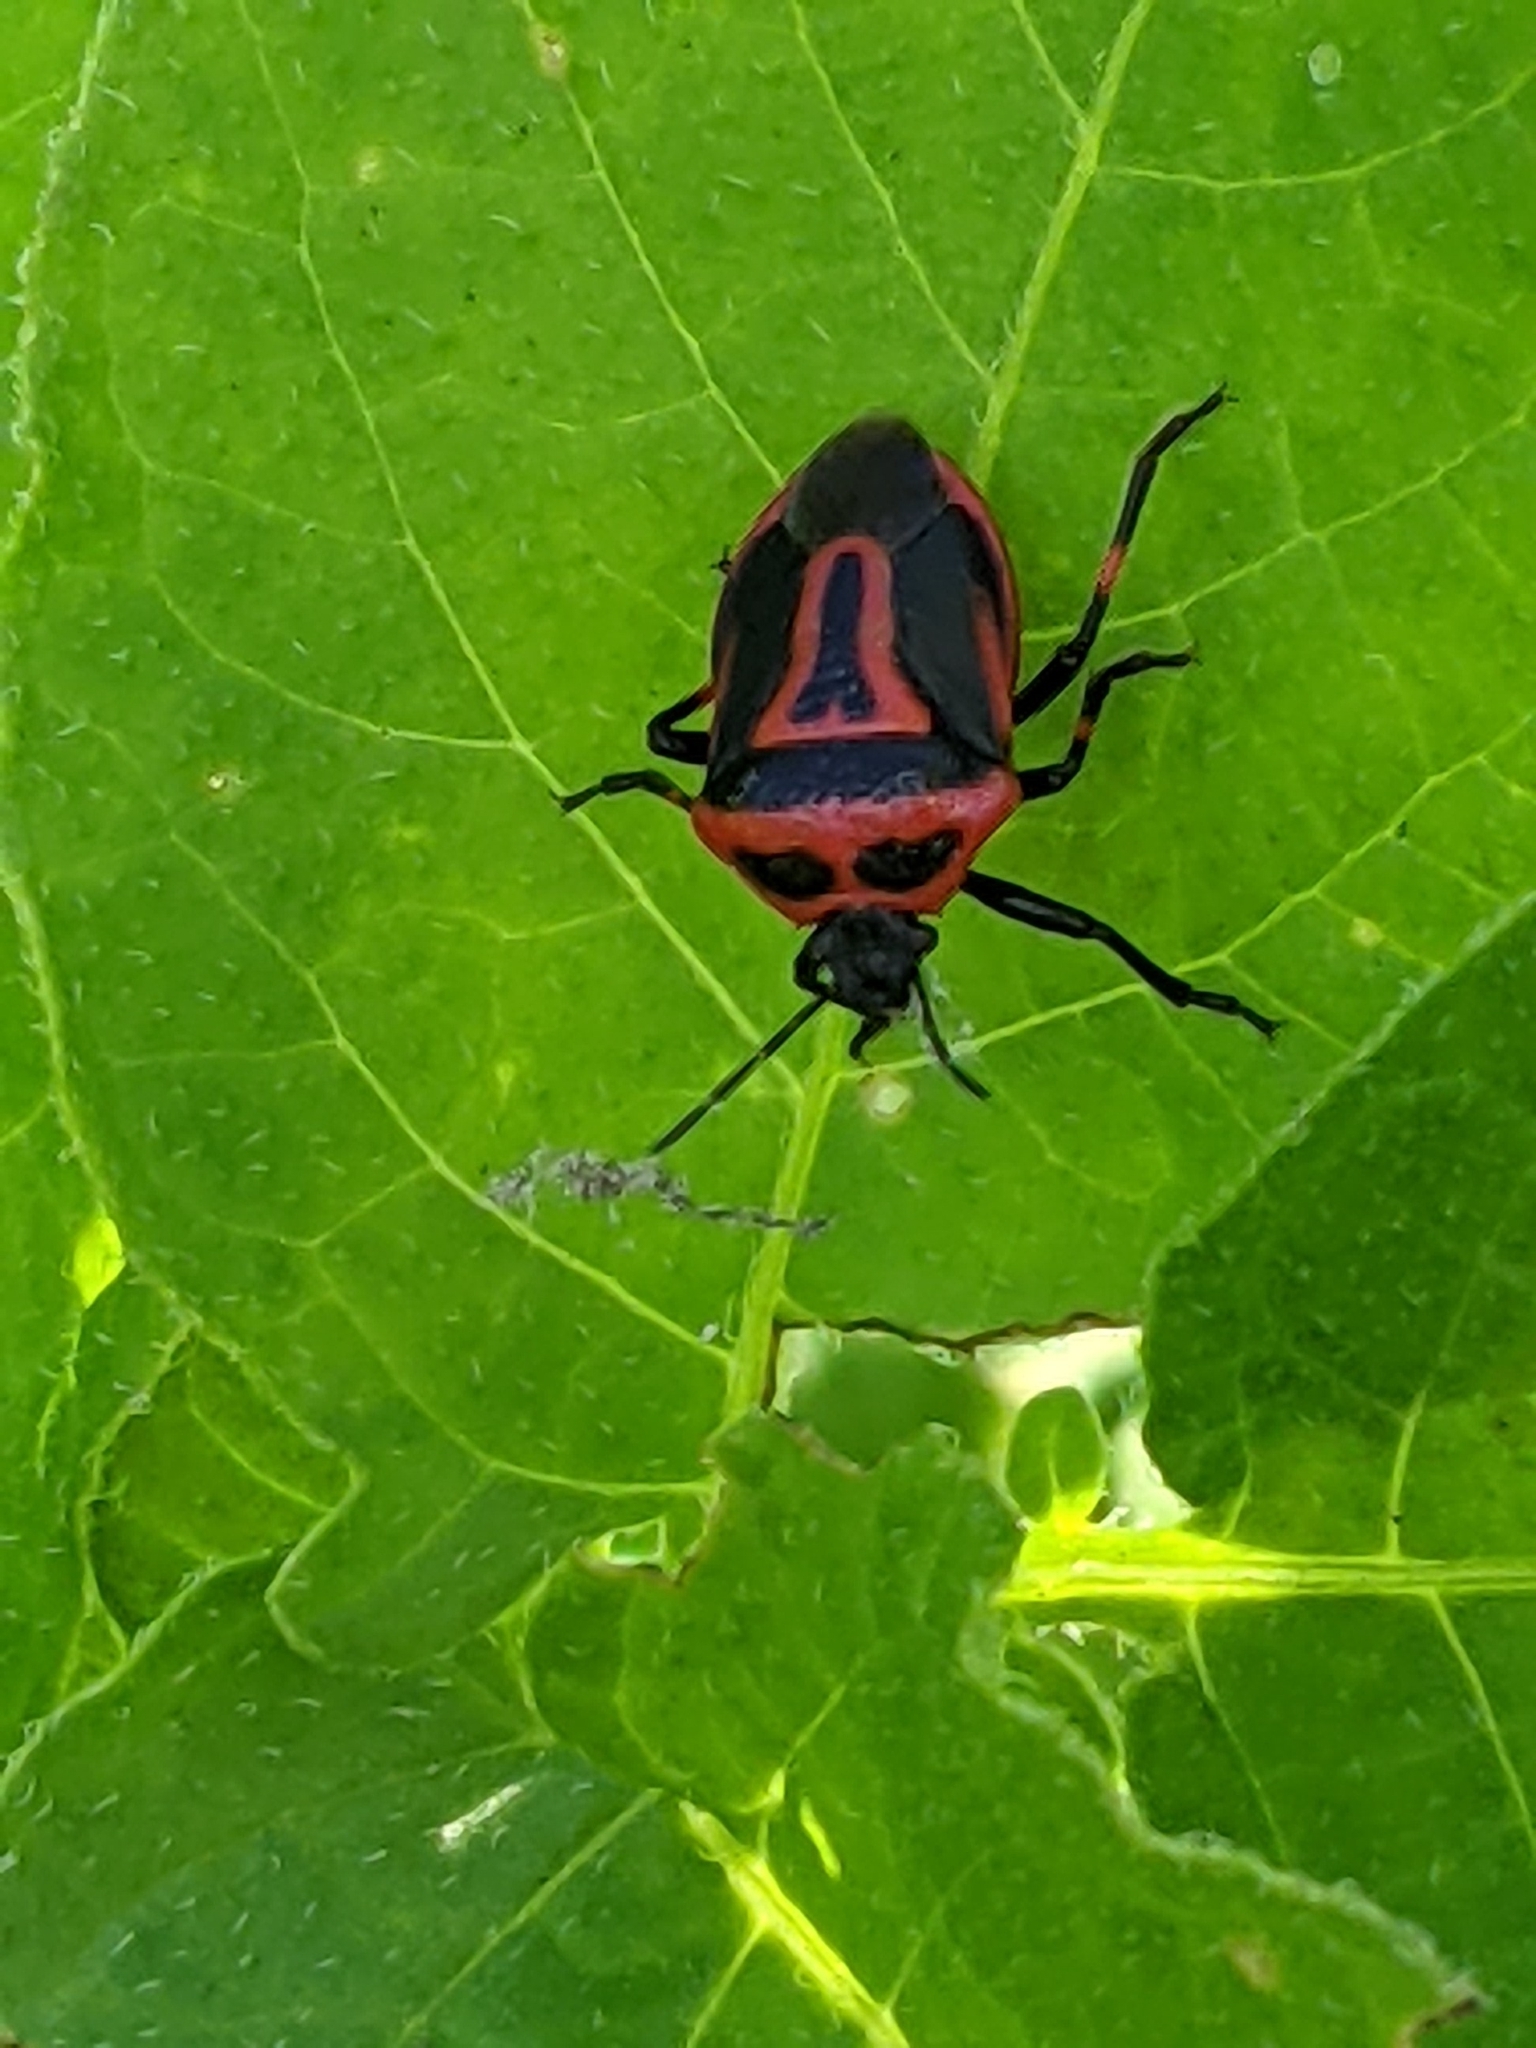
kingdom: Animalia
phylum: Arthropoda
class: Insecta
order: Hemiptera
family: Pentatomidae
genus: Perillus
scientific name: Perillus bioculatus
